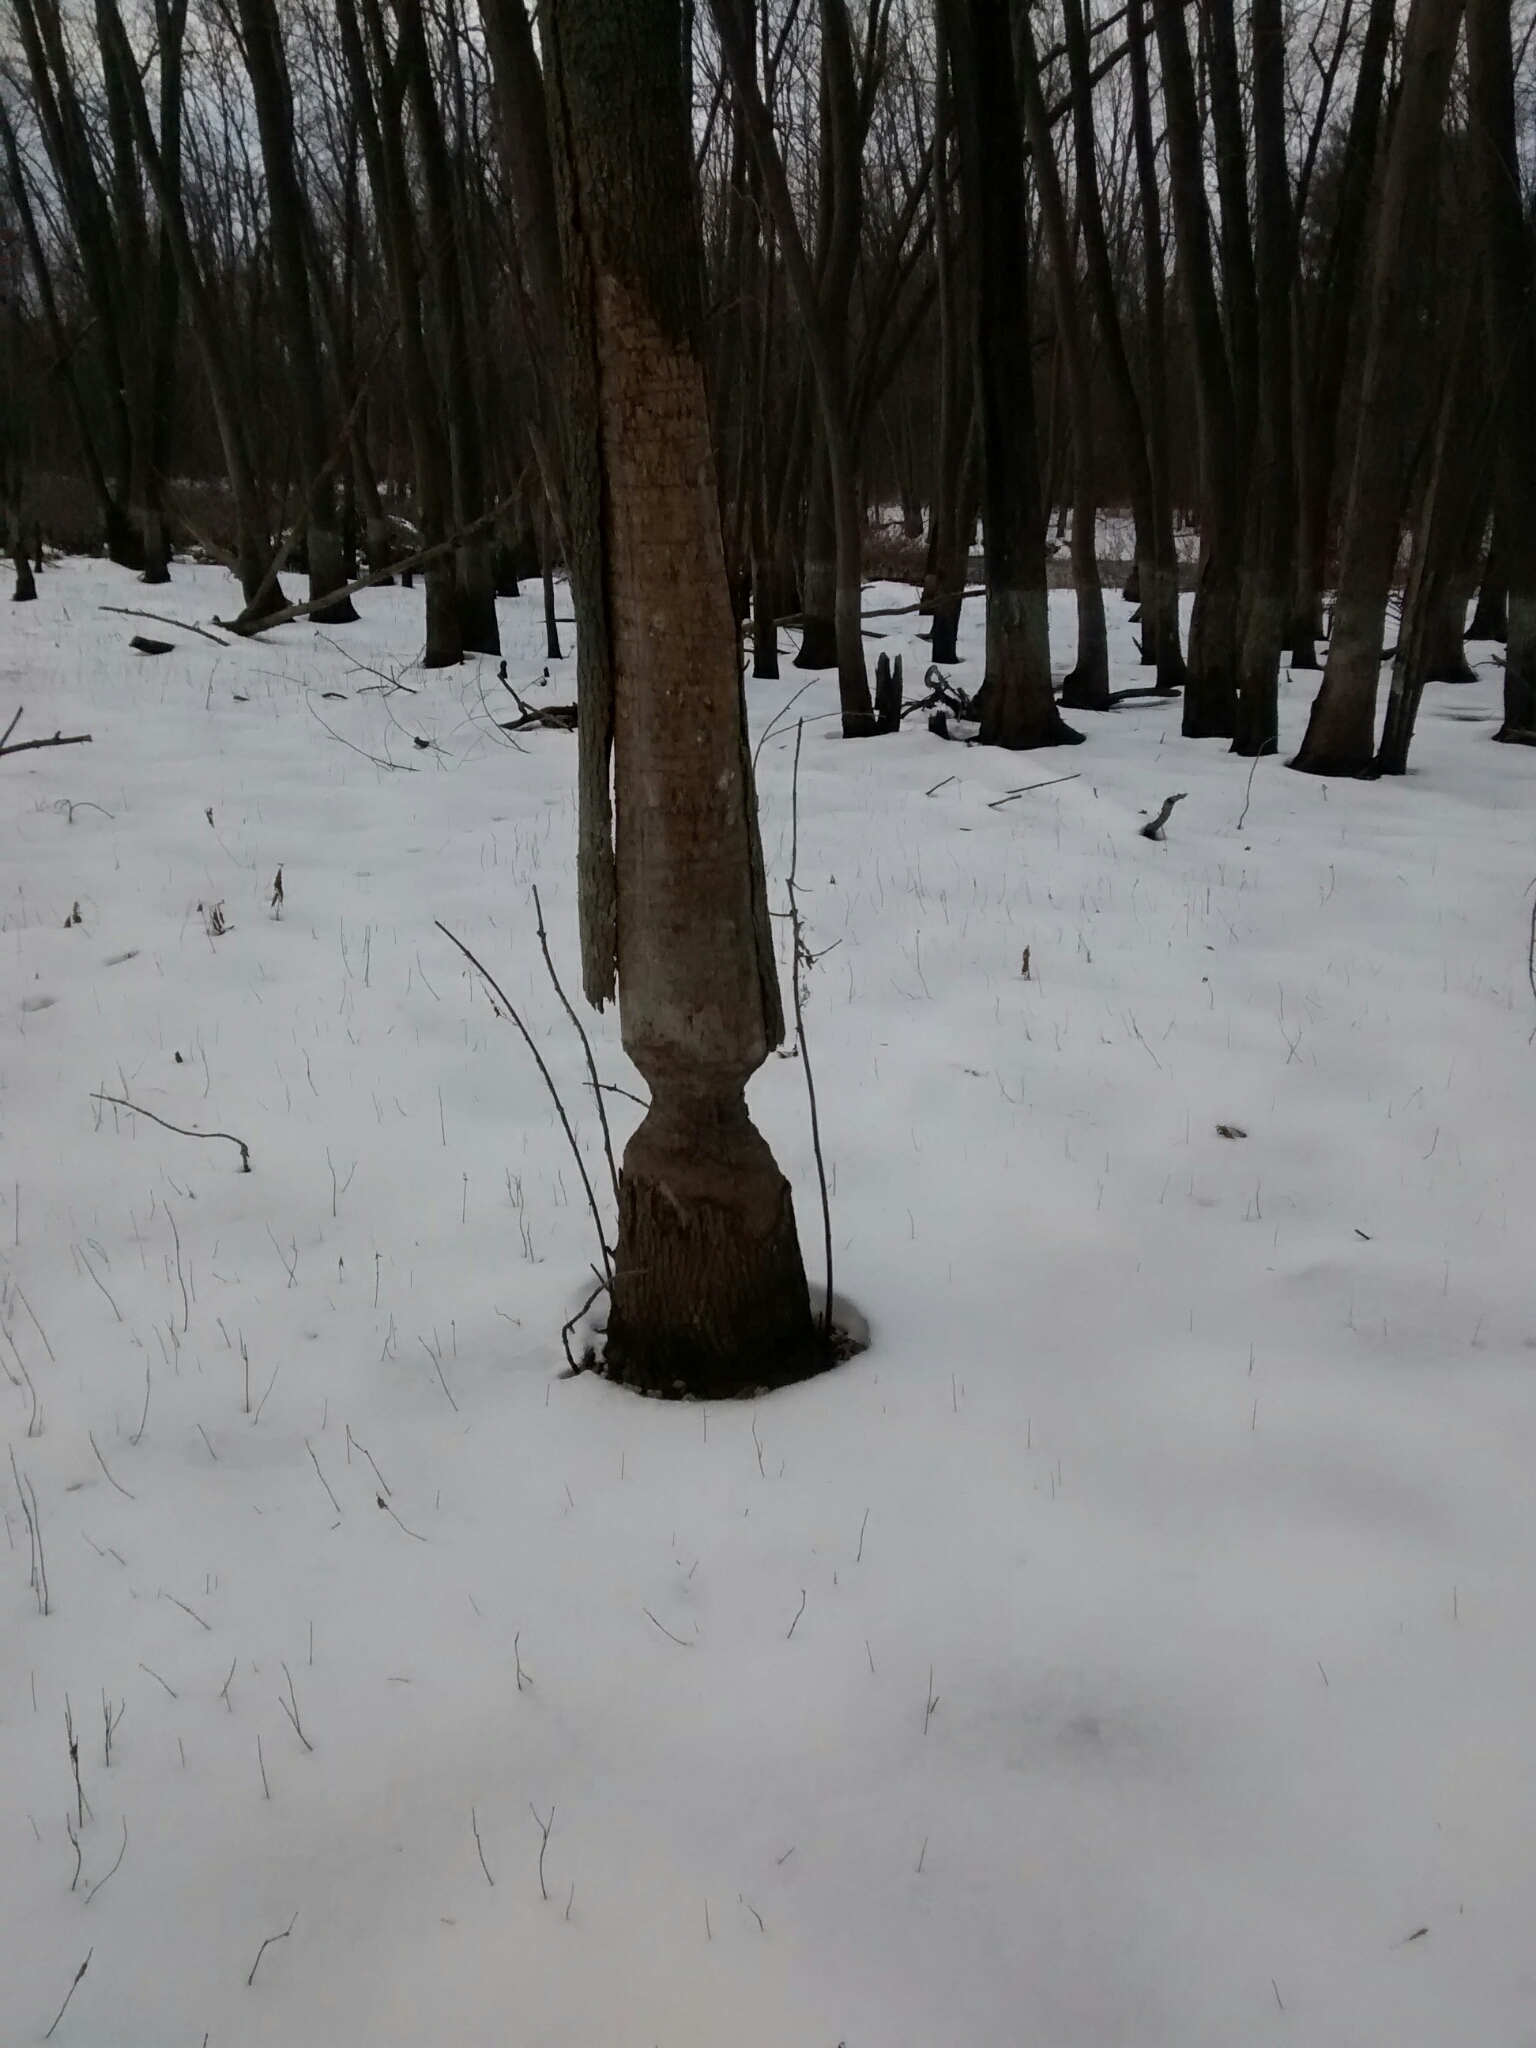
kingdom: Animalia
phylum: Chordata
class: Mammalia
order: Rodentia
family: Castoridae
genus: Castor
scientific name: Castor canadensis
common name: American beaver
